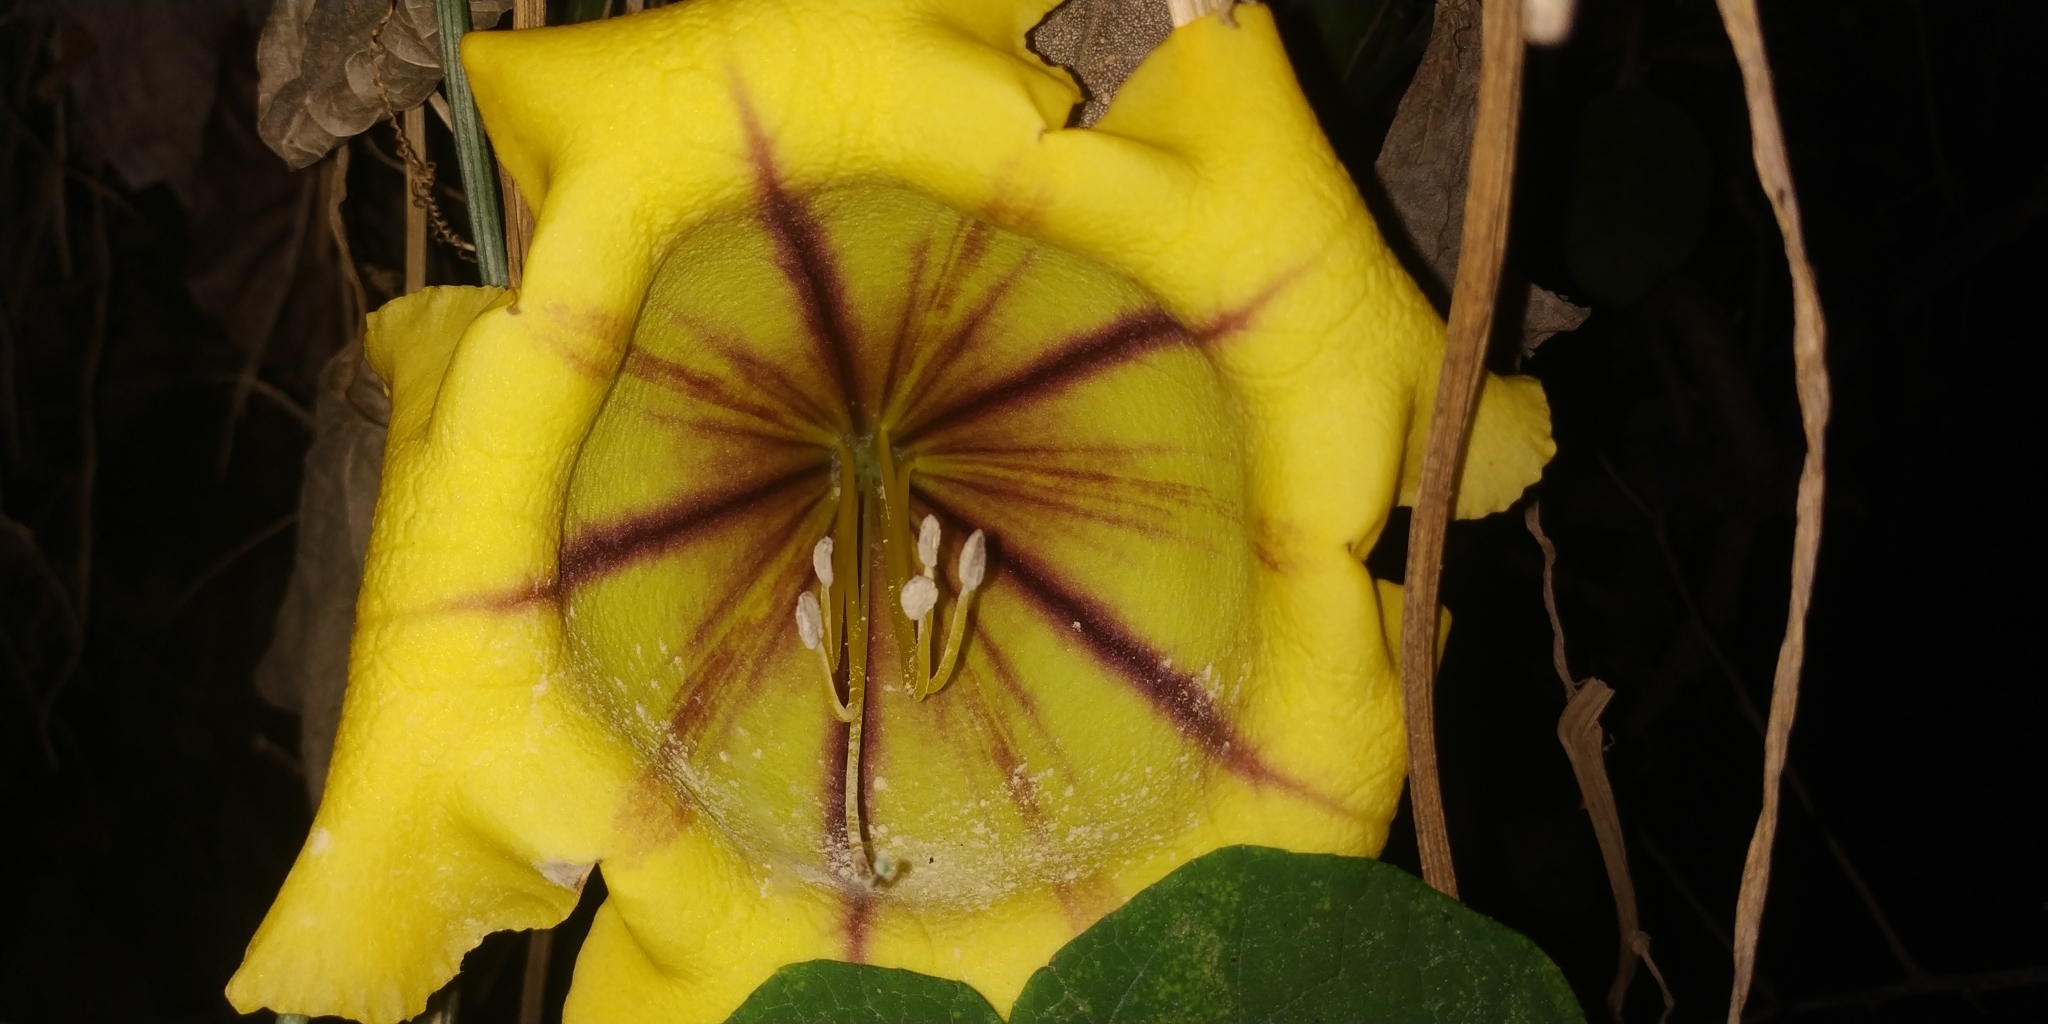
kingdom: Plantae
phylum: Tracheophyta
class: Magnoliopsida
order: Solanales
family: Solanaceae
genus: Solandra
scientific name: Solandra maxima
